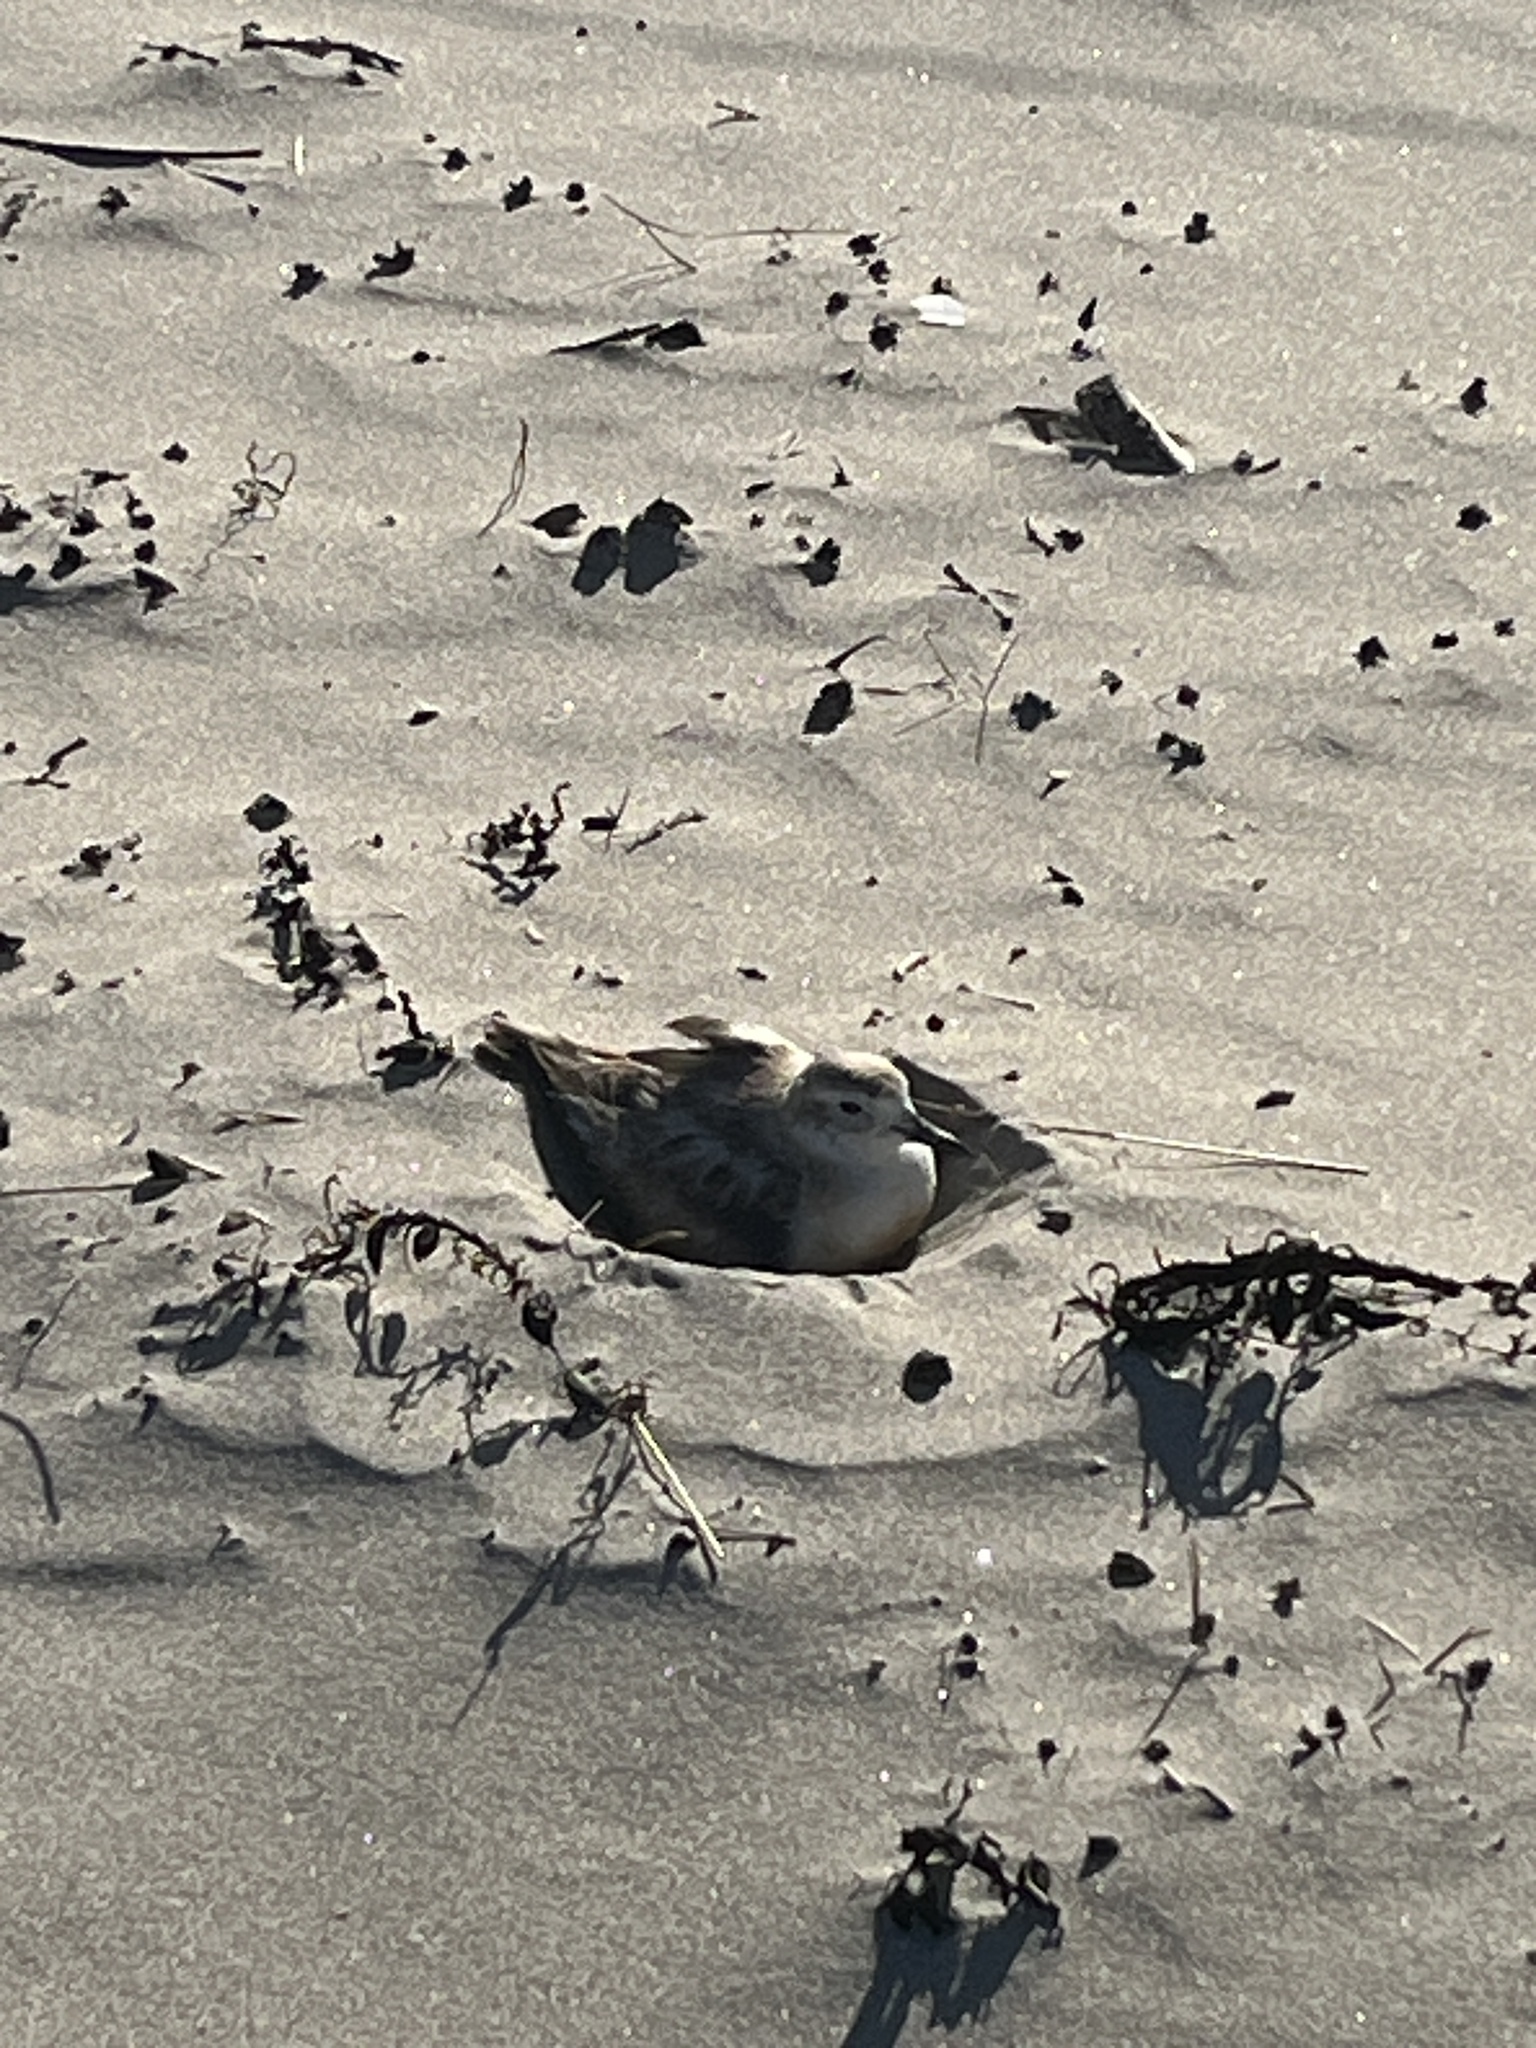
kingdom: Animalia
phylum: Chordata
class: Aves
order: Charadriiformes
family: Charadriidae
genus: Anarhynchus
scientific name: Anarhynchus
